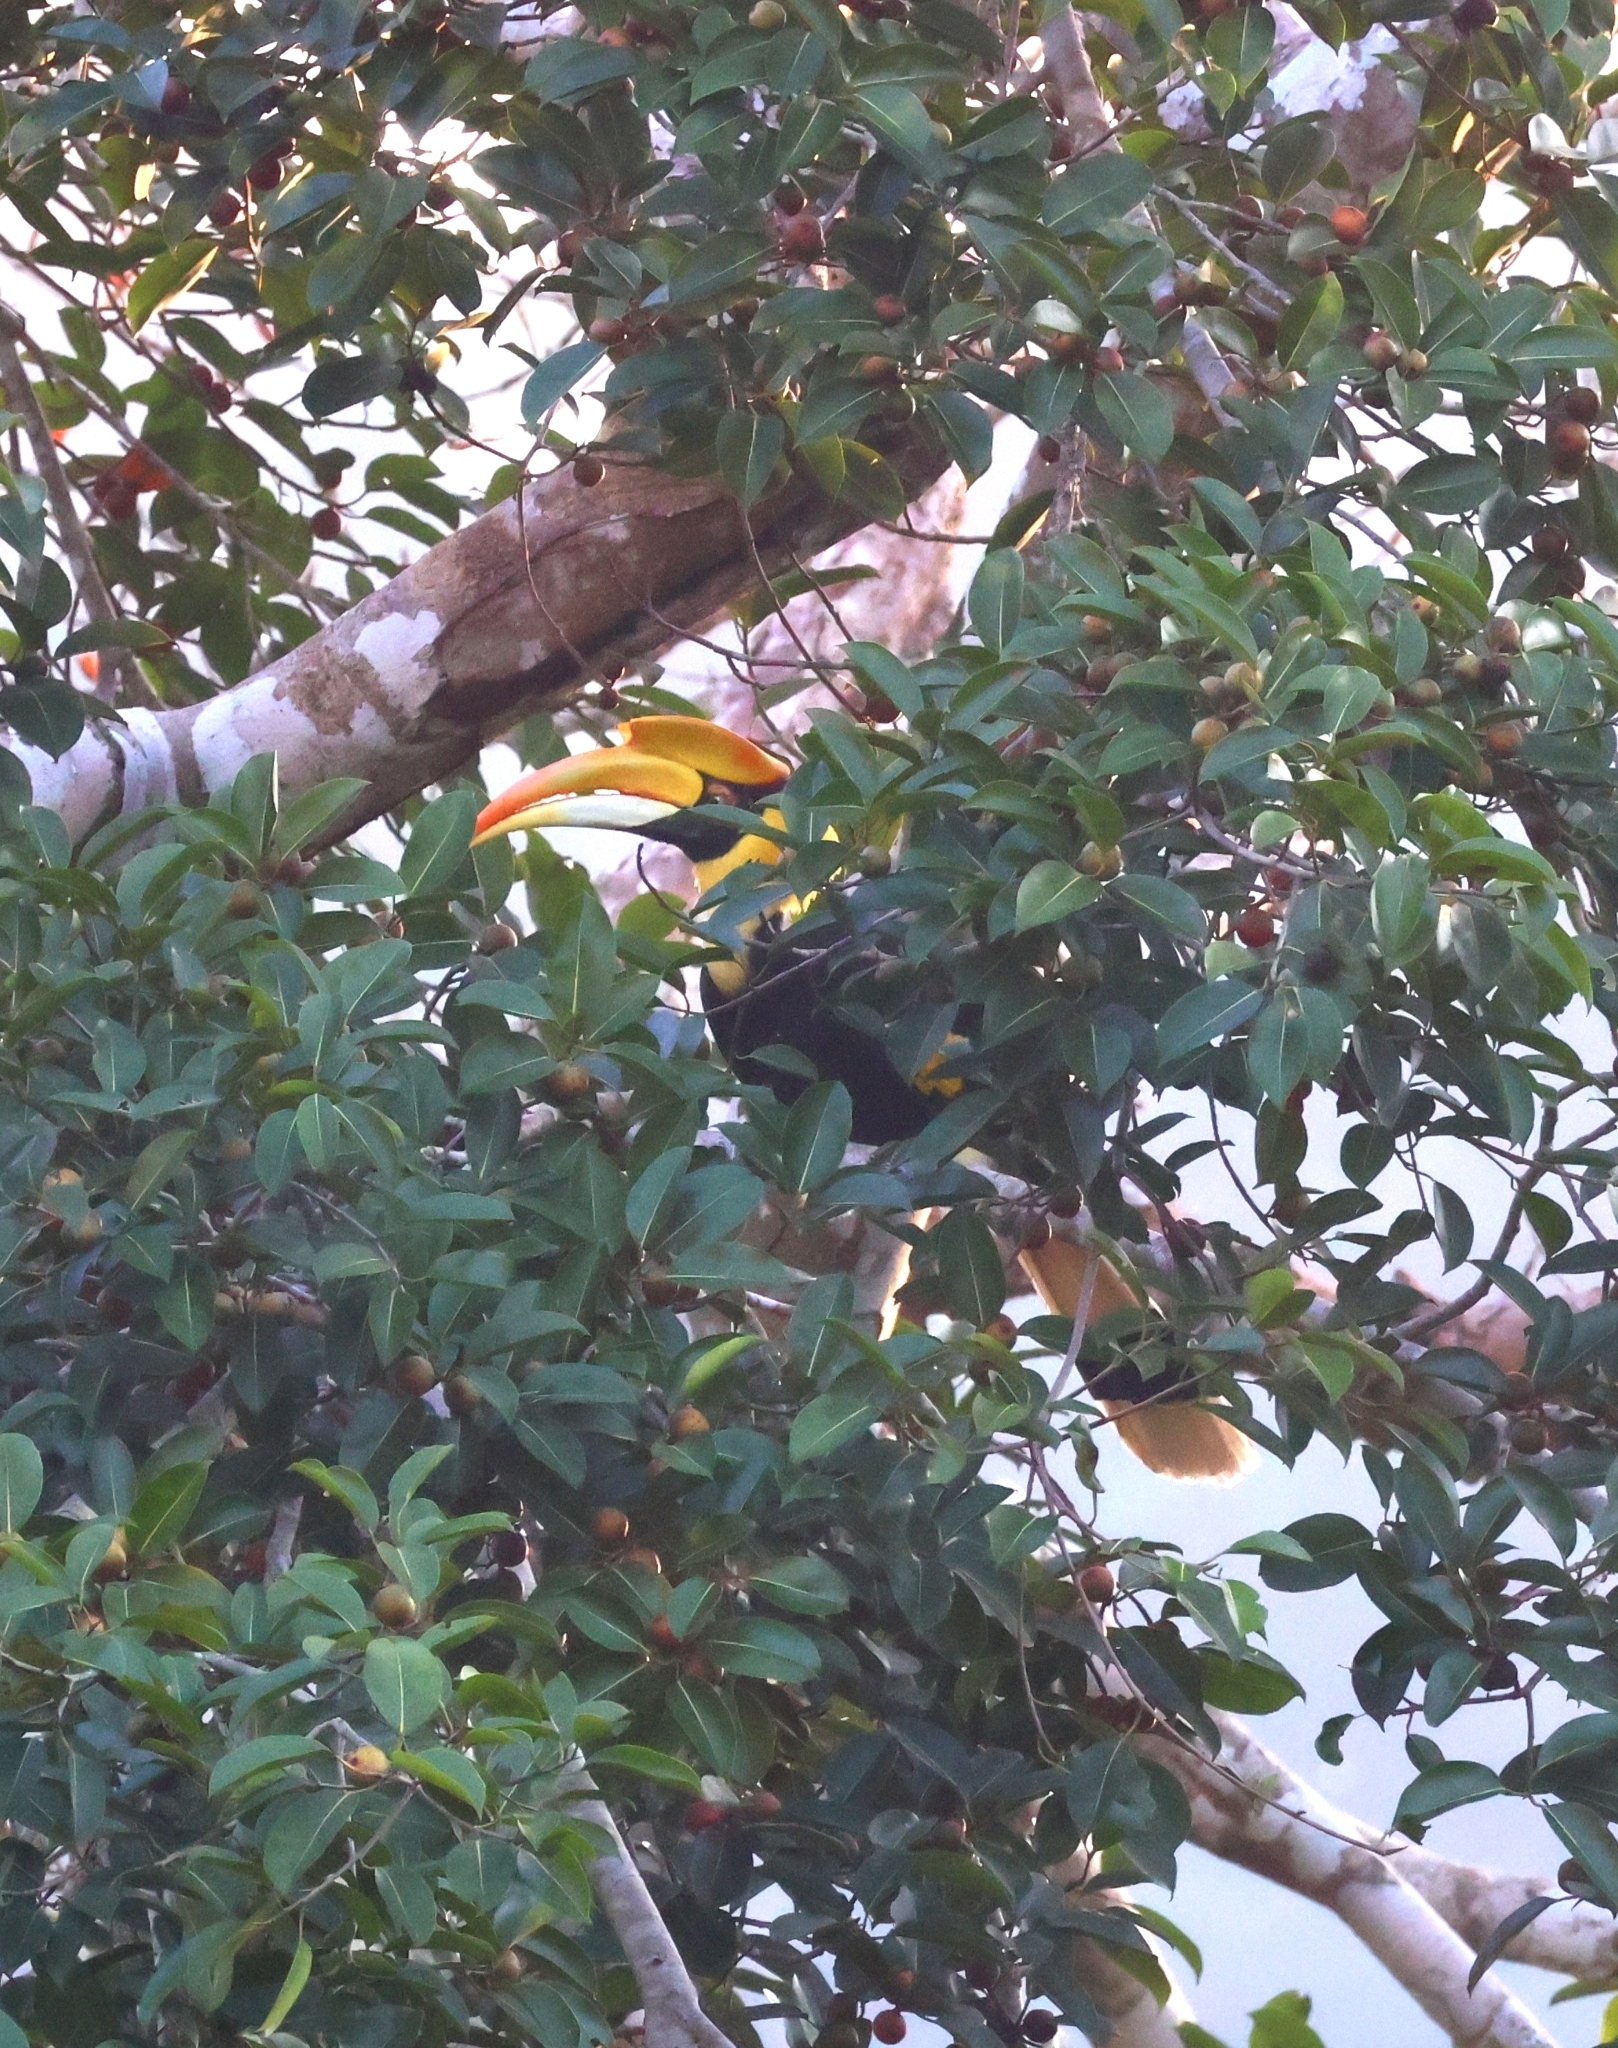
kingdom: Animalia
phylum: Chordata
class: Aves
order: Bucerotiformes
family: Bucerotidae
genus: Buceros
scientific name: Buceros bicornis
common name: Great hornbill
